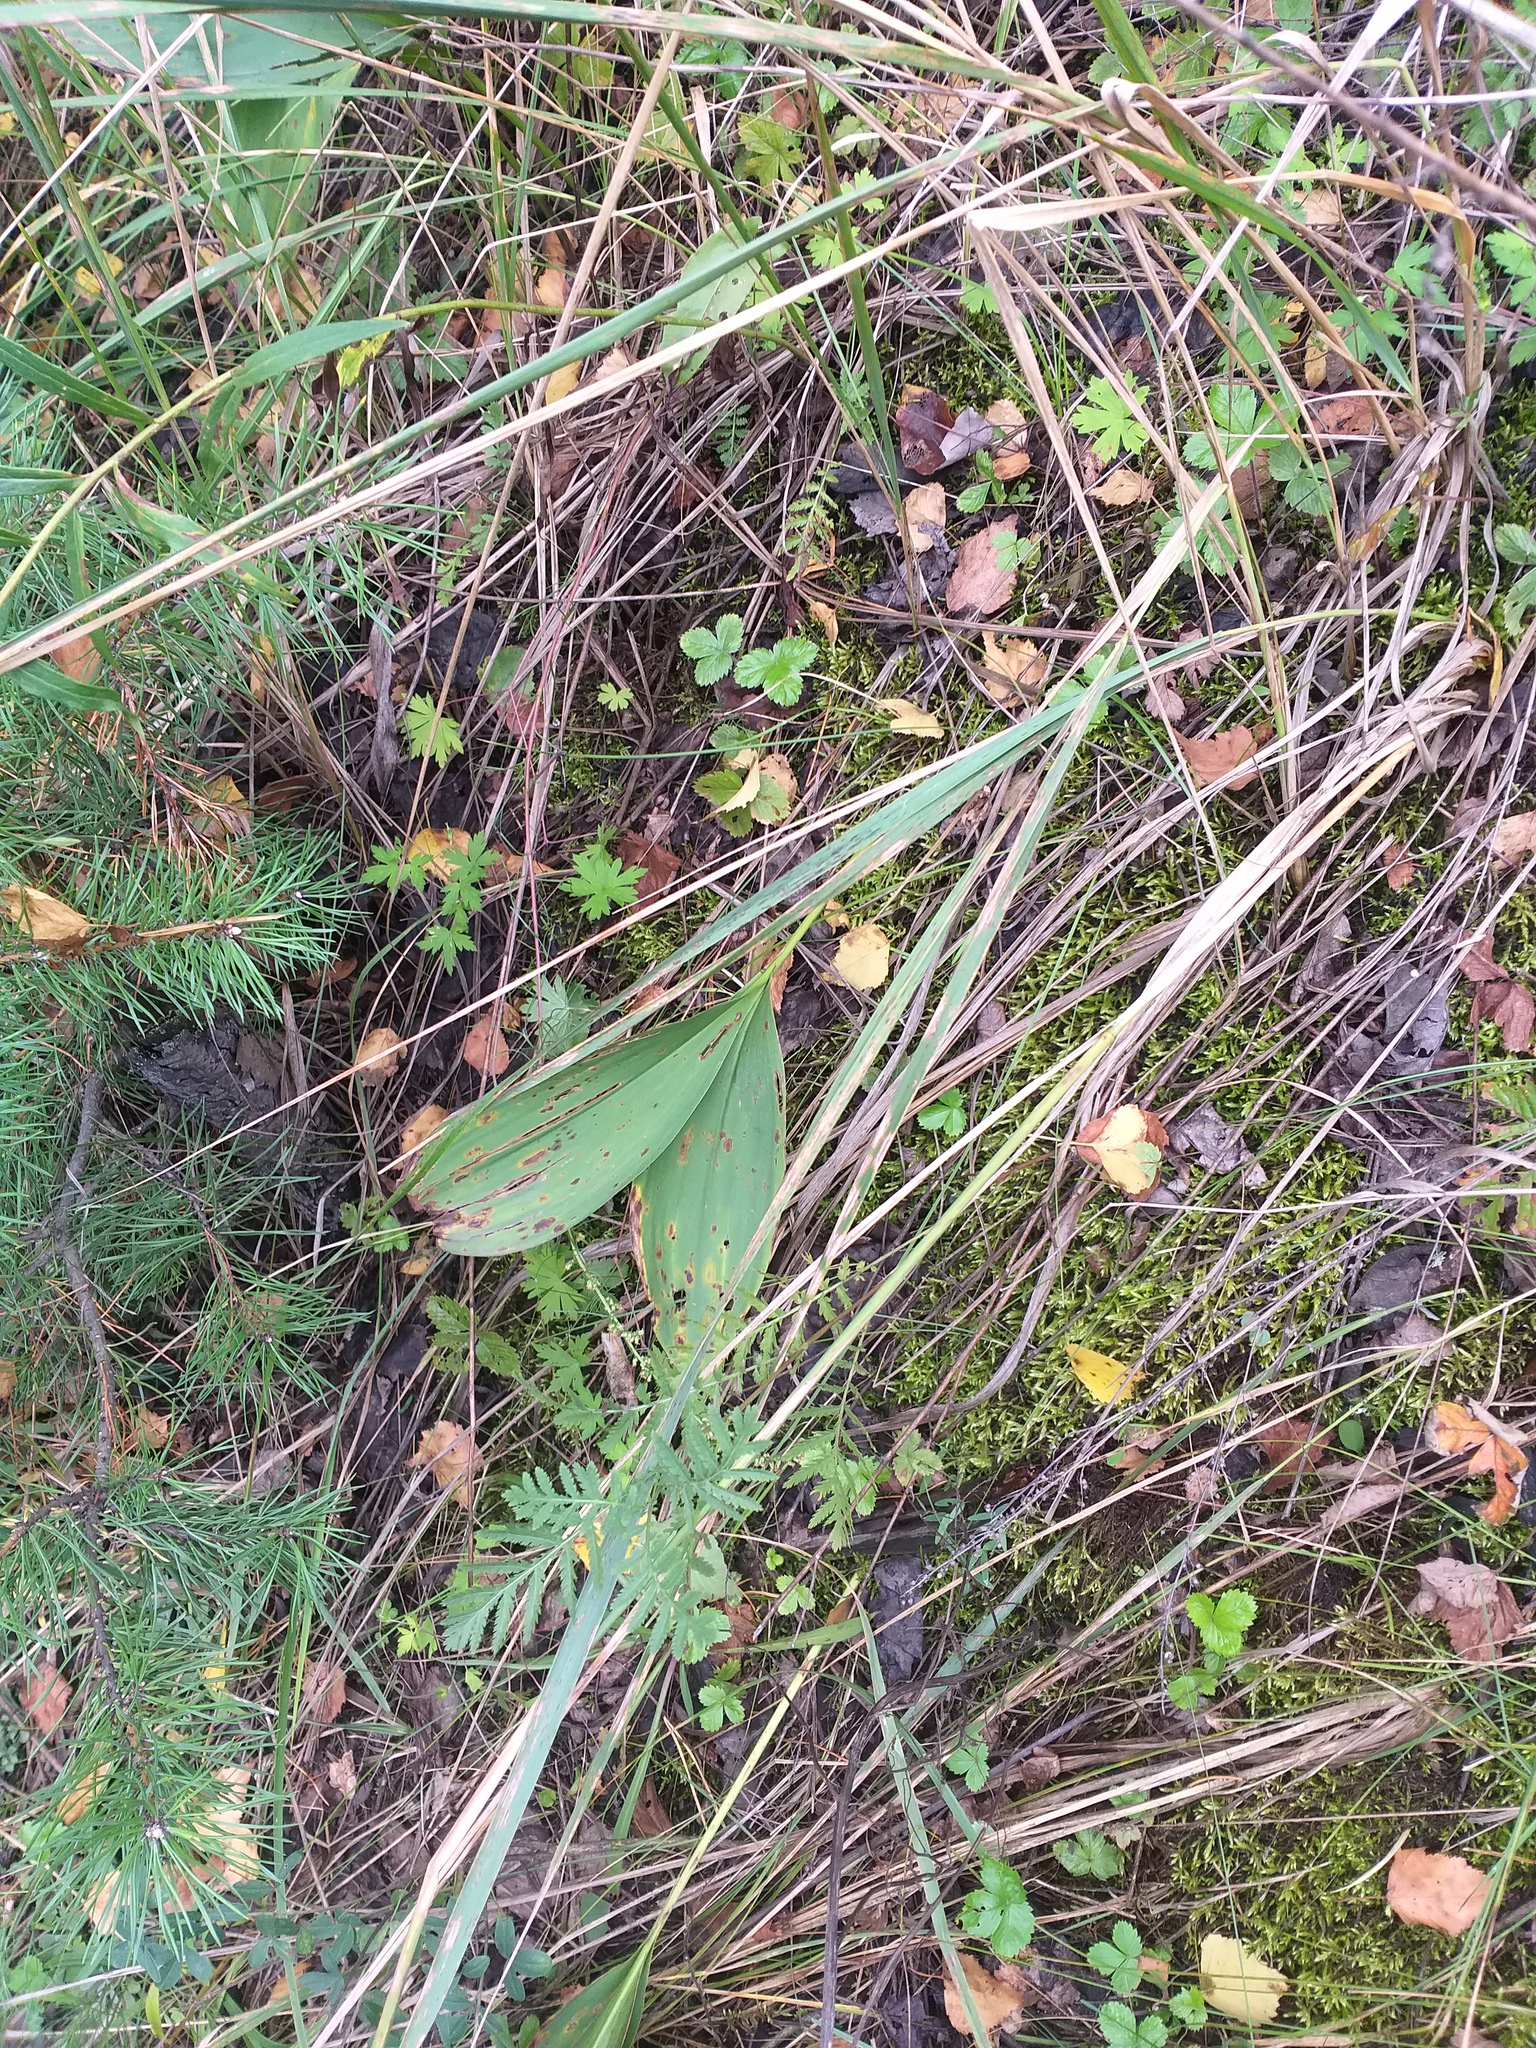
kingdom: Plantae
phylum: Tracheophyta
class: Liliopsida
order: Asparagales
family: Asparagaceae
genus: Convallaria
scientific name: Convallaria majalis
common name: Lily-of-the-valley
